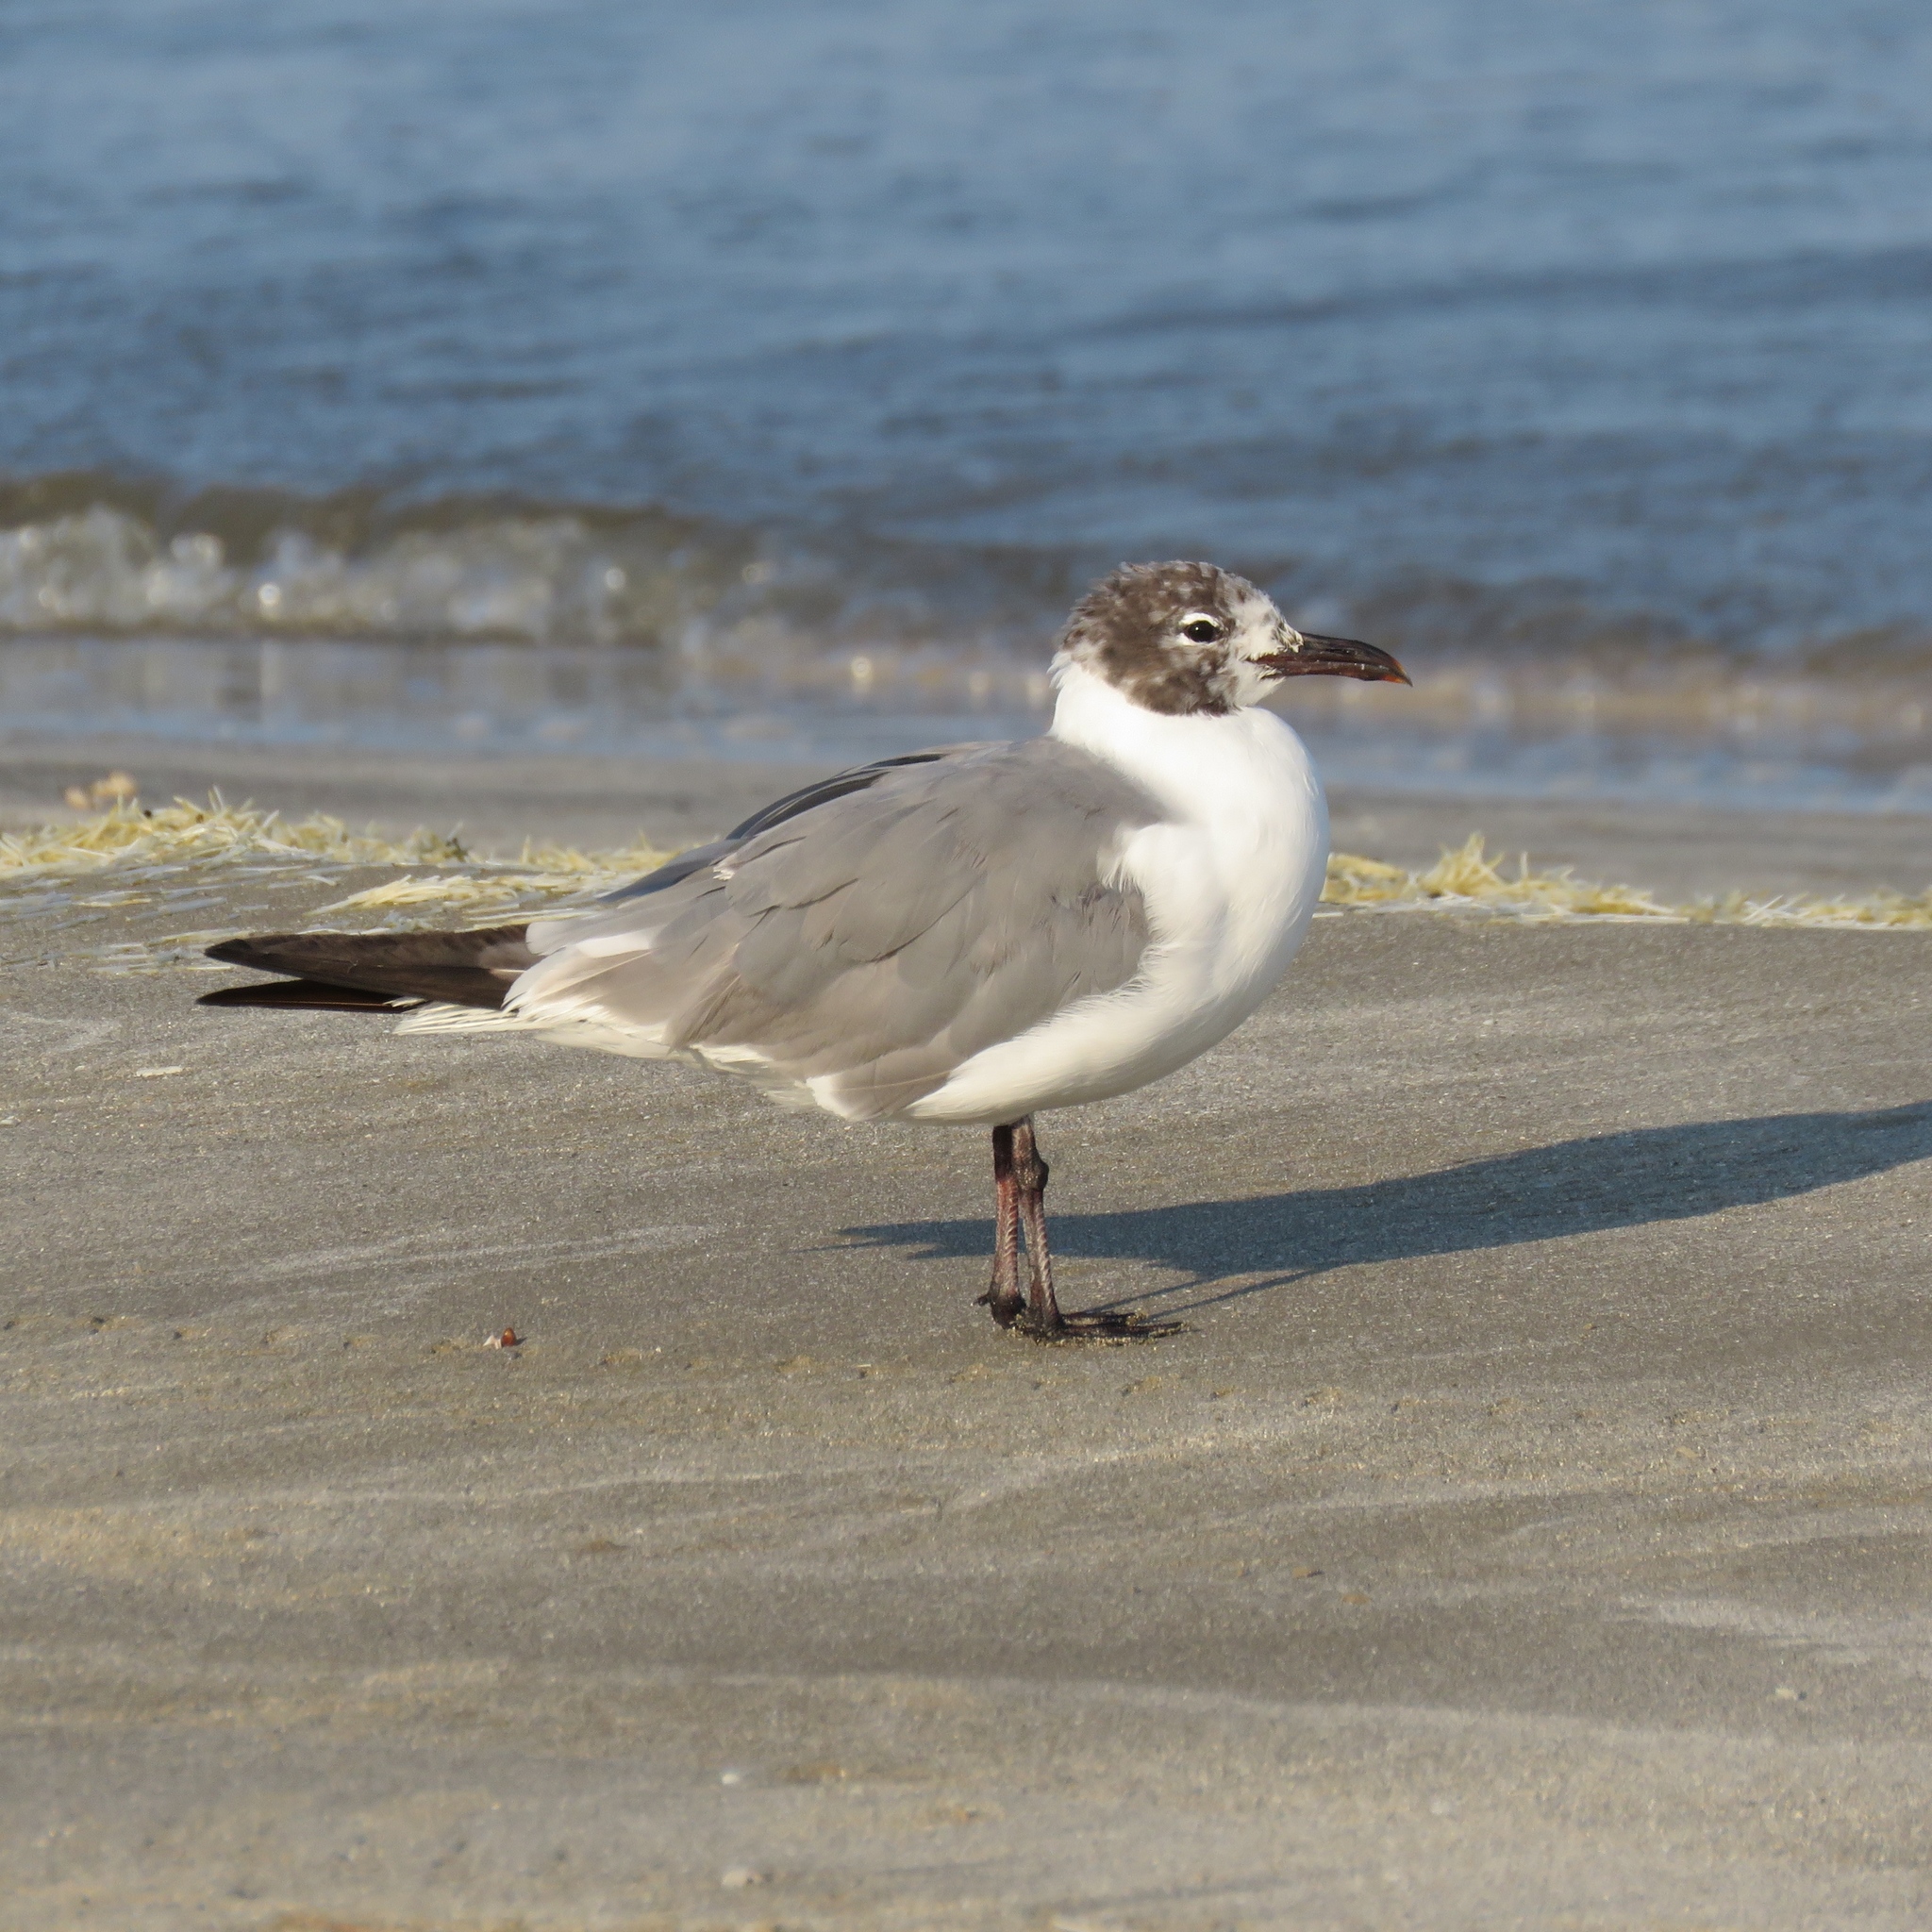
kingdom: Animalia
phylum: Chordata
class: Aves
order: Charadriiformes
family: Laridae
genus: Leucophaeus
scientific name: Leucophaeus atricilla
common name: Laughing gull
